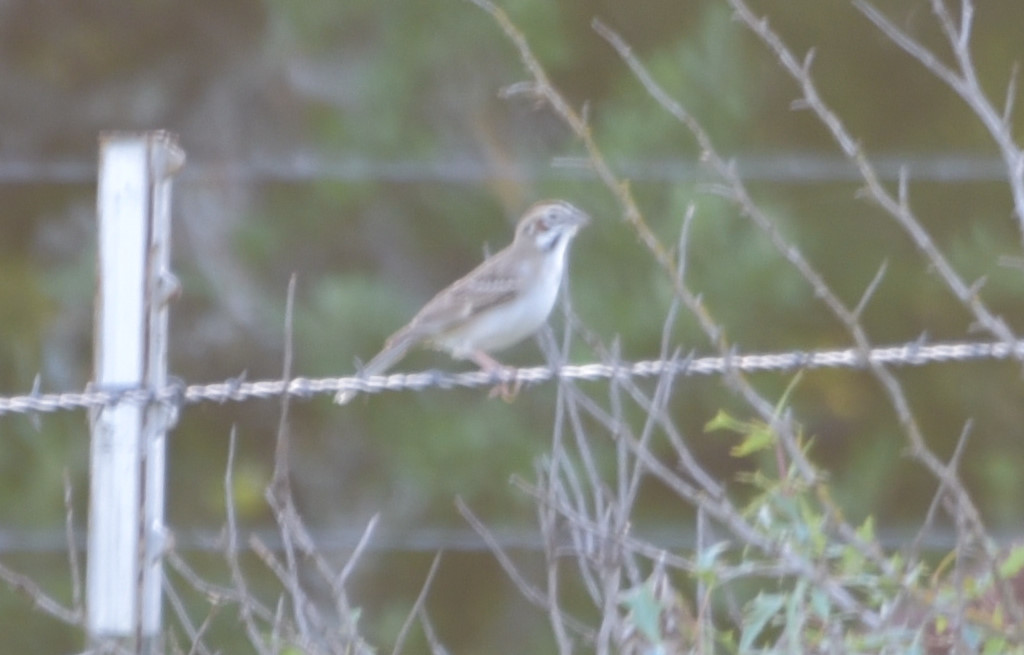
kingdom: Animalia
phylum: Chordata
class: Aves
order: Passeriformes
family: Passerellidae
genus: Chondestes
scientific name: Chondestes grammacus
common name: Lark sparrow
